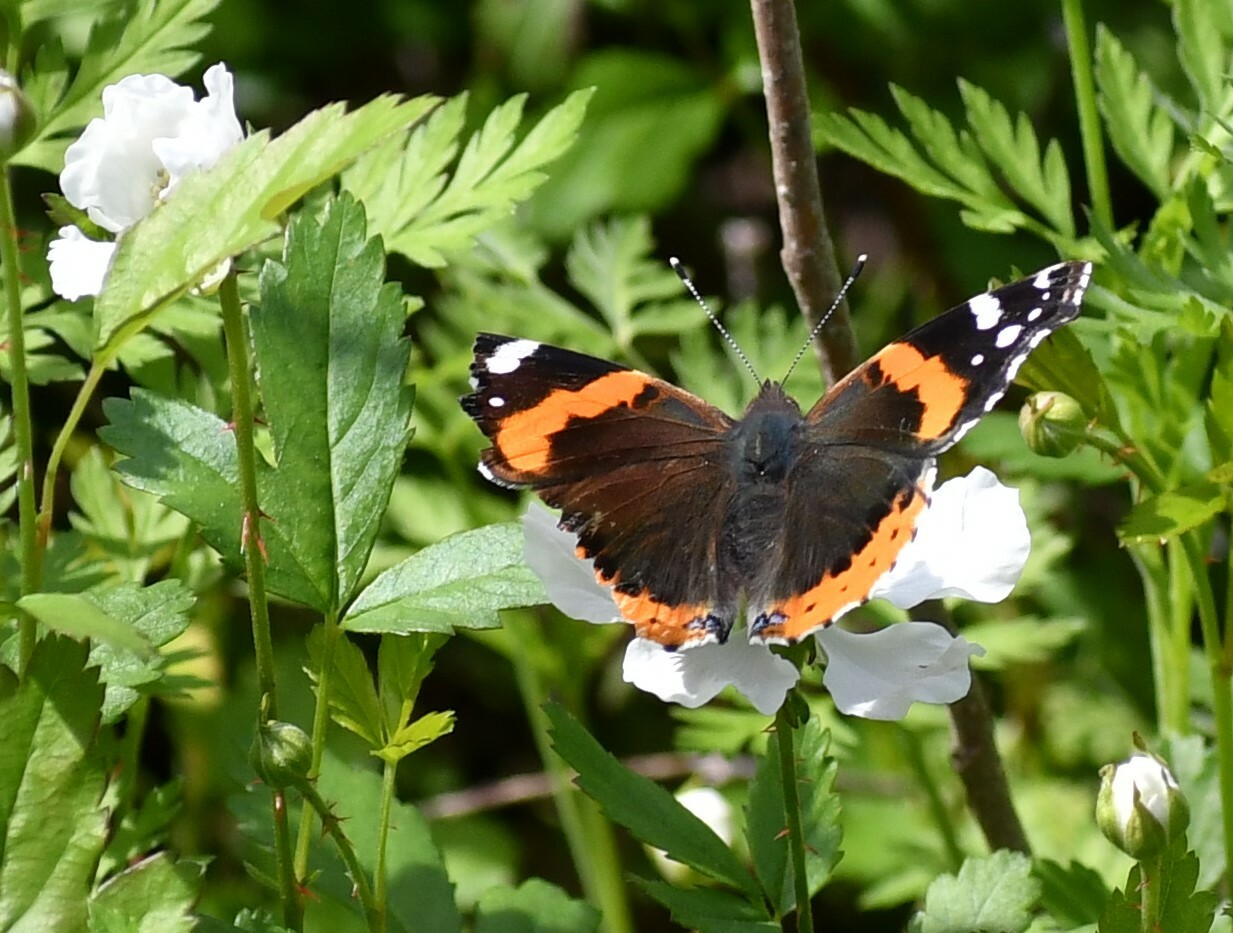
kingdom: Animalia
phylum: Arthropoda
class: Insecta
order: Lepidoptera
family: Nymphalidae
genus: Vanessa
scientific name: Vanessa atalanta
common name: Red admiral
